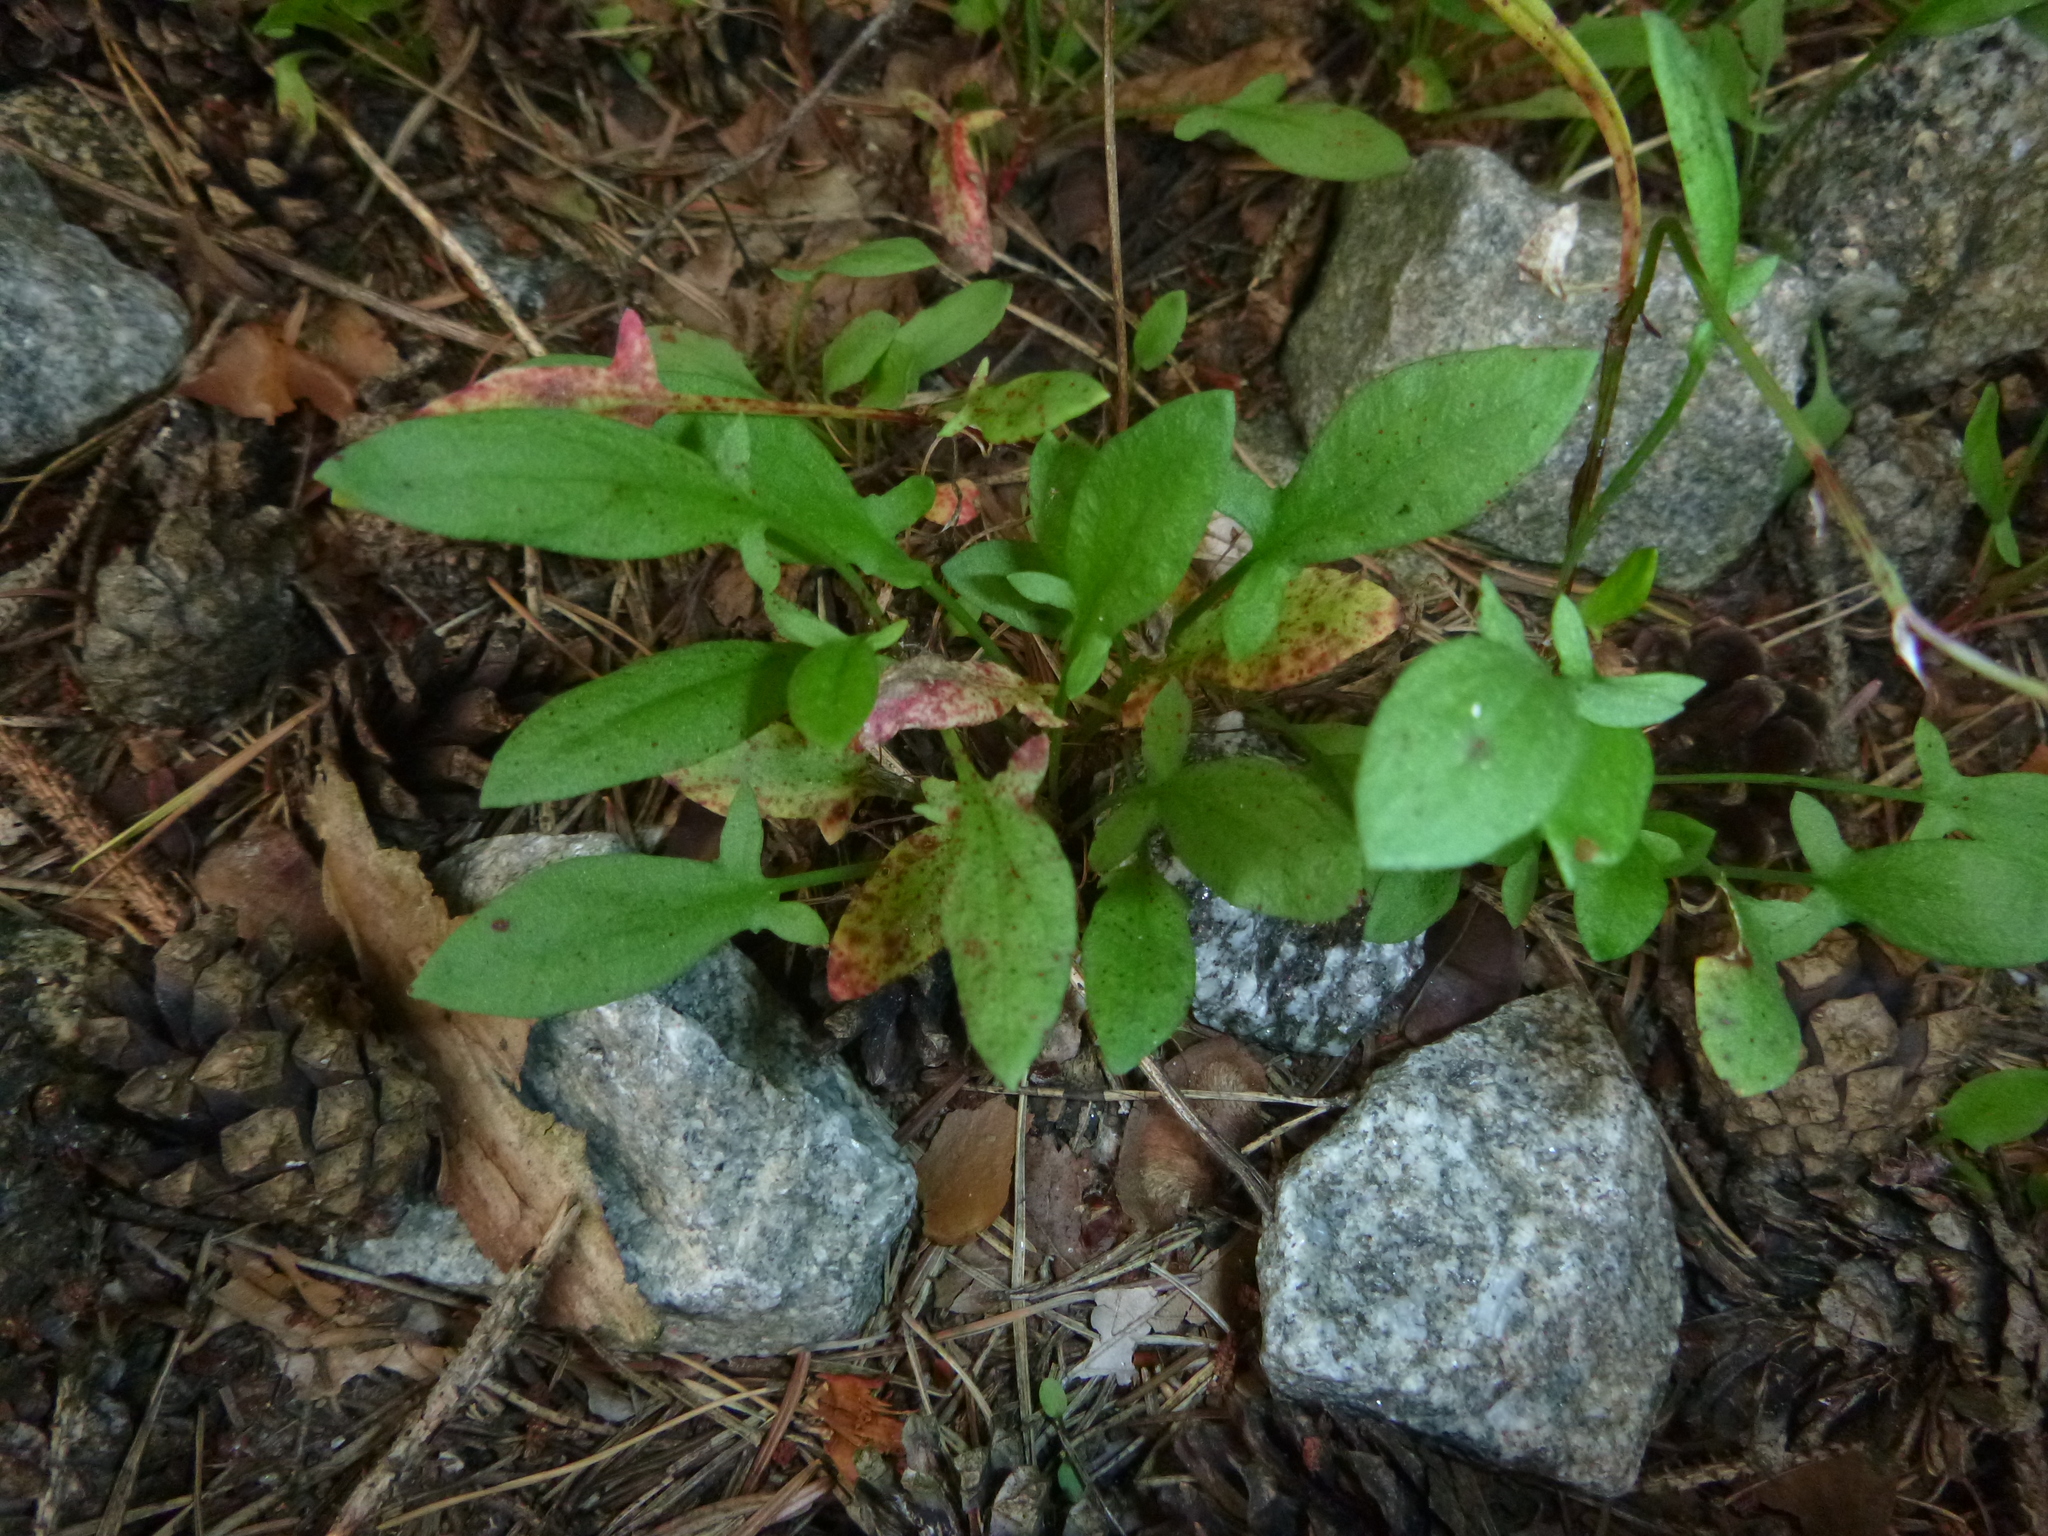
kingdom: Plantae
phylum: Tracheophyta
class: Magnoliopsida
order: Caryophyllales
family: Polygonaceae
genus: Rumex
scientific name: Rumex acetosella
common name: Common sheep sorrel
